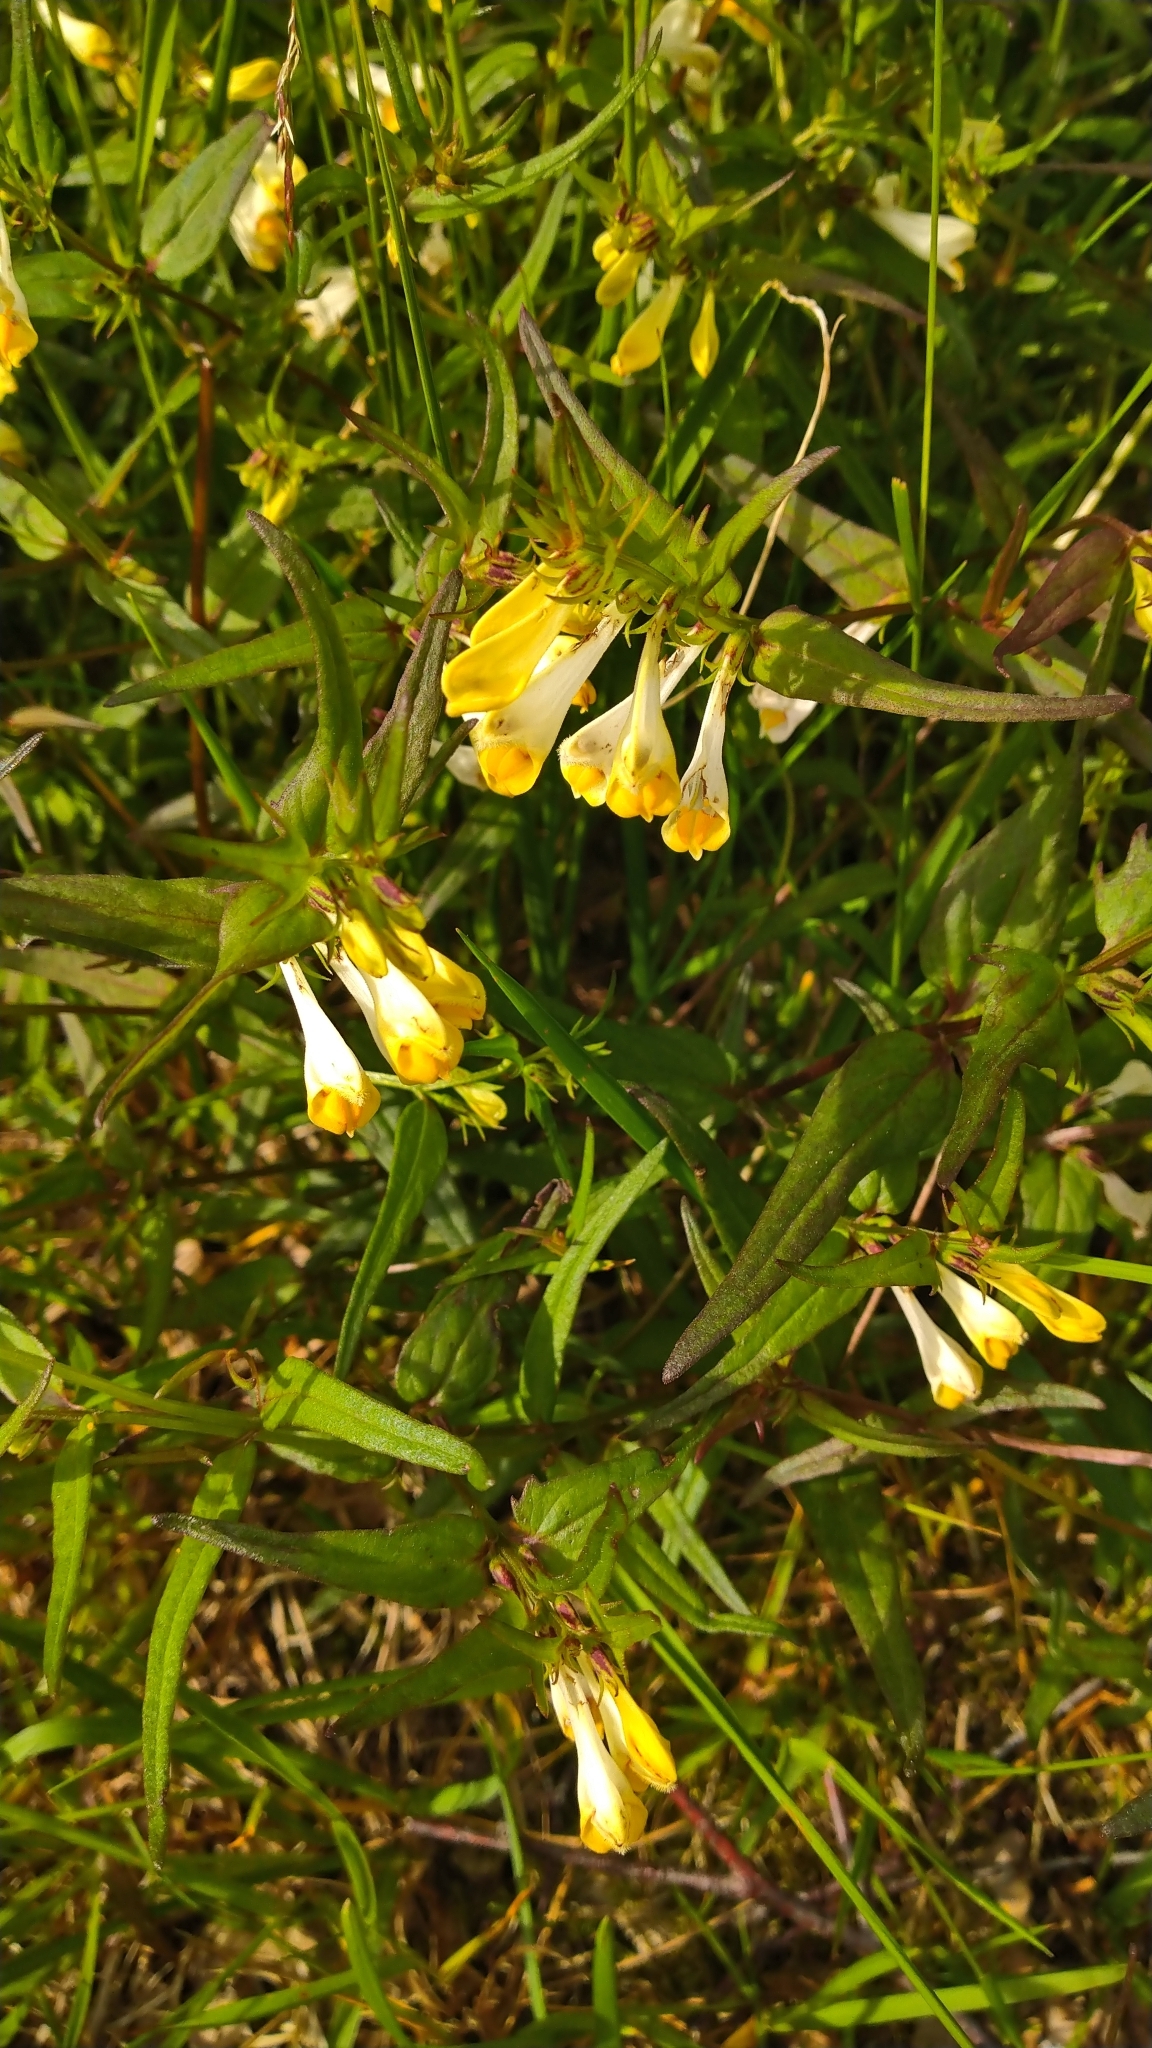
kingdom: Plantae
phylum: Tracheophyta
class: Magnoliopsida
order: Lamiales
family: Orobanchaceae
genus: Melampyrum
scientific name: Melampyrum pratense
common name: Common cow-wheat
